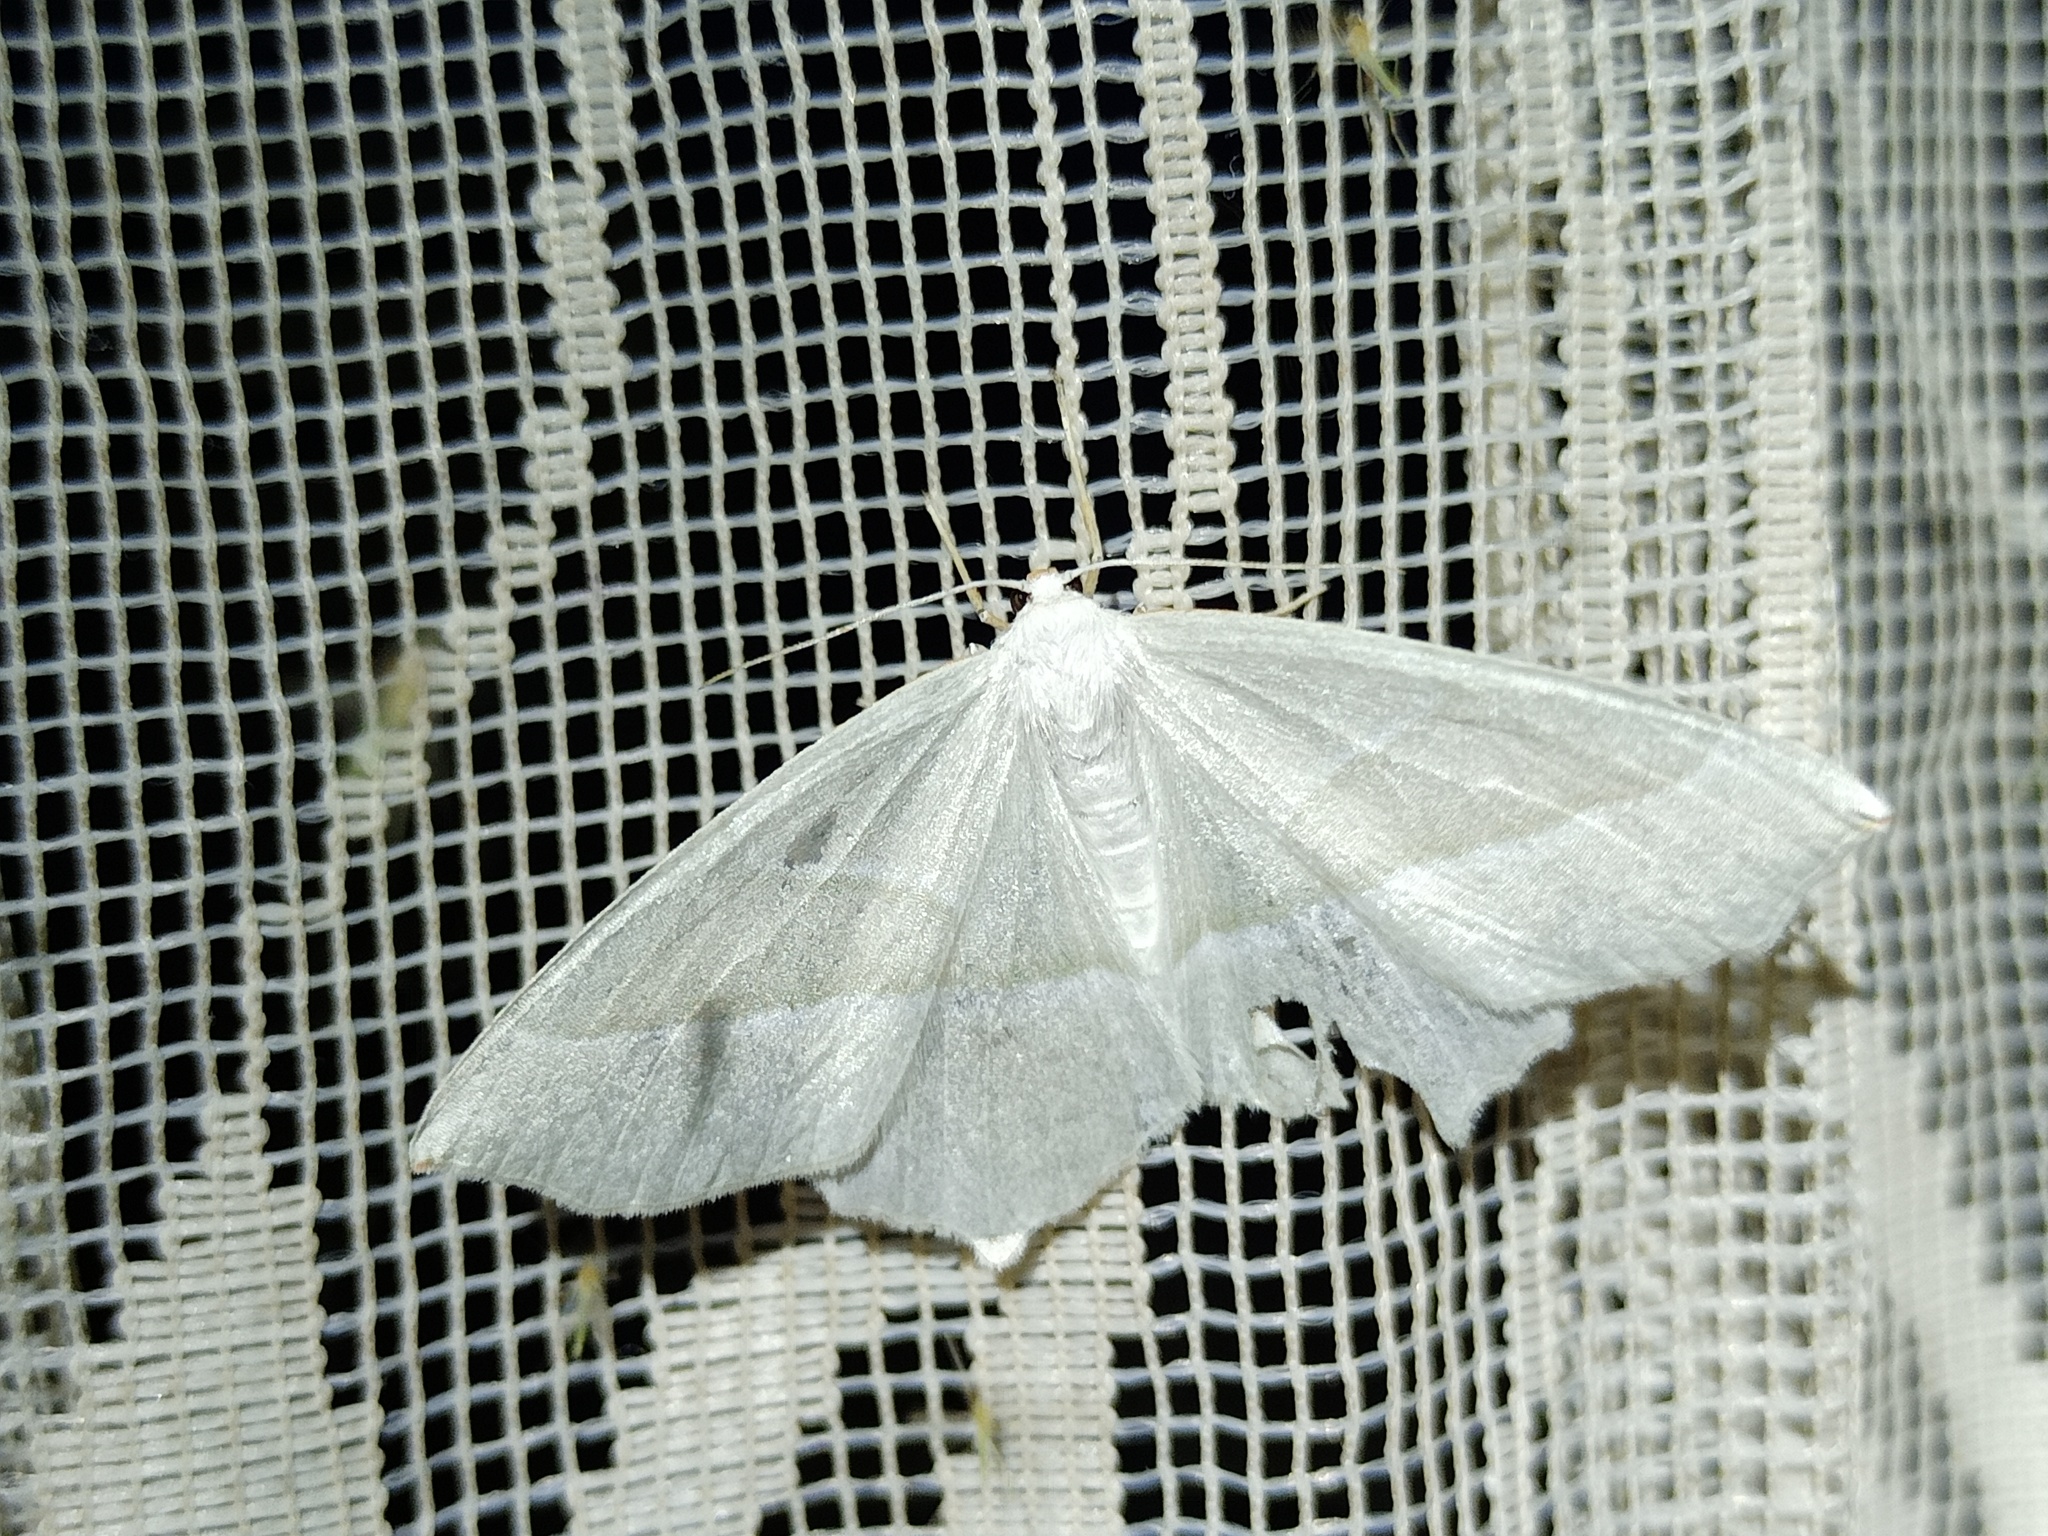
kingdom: Animalia
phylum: Arthropoda
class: Insecta
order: Lepidoptera
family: Geometridae
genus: Campaea
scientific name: Campaea margaritaria
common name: Light emerald
